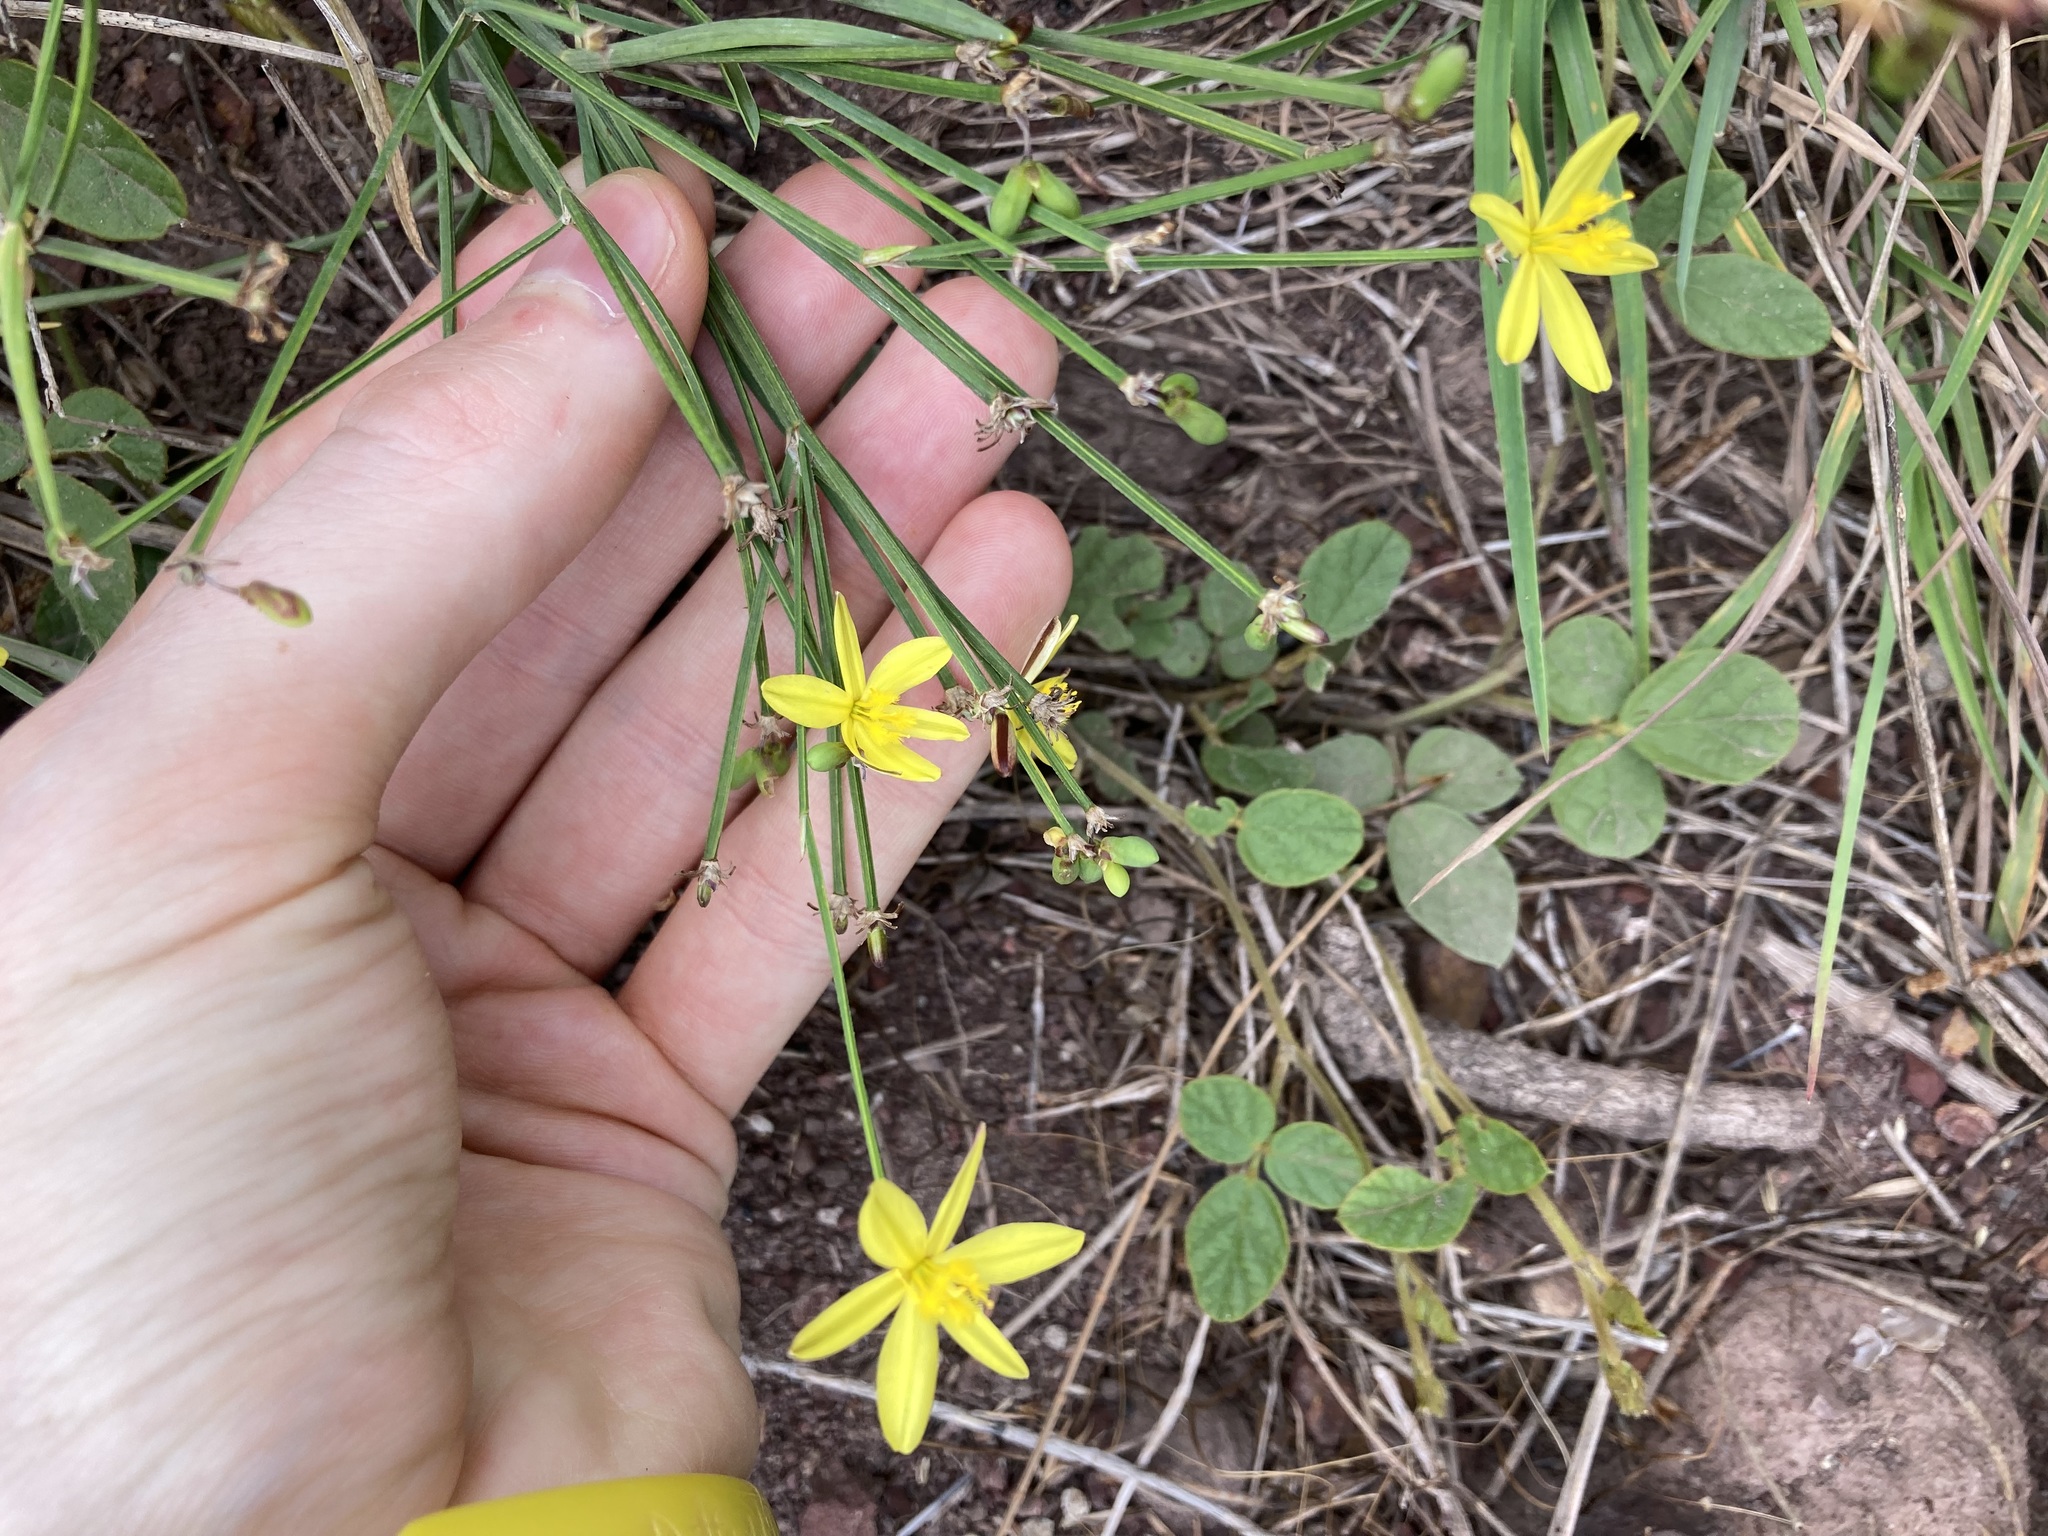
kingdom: Plantae
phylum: Tracheophyta
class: Liliopsida
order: Asparagales
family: Asphodelaceae
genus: Tricoryne
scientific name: Tricoryne elatior
